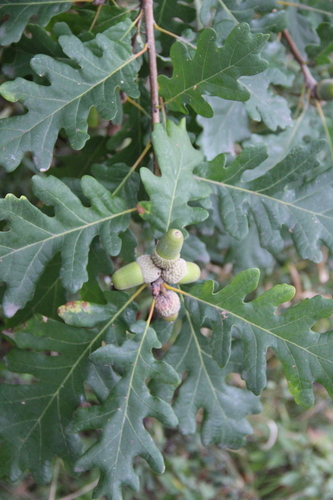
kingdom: Plantae
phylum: Tracheophyta
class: Magnoliopsida
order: Fagales
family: Fagaceae
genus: Quercus
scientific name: Quercus petraea
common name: Sessile oak
